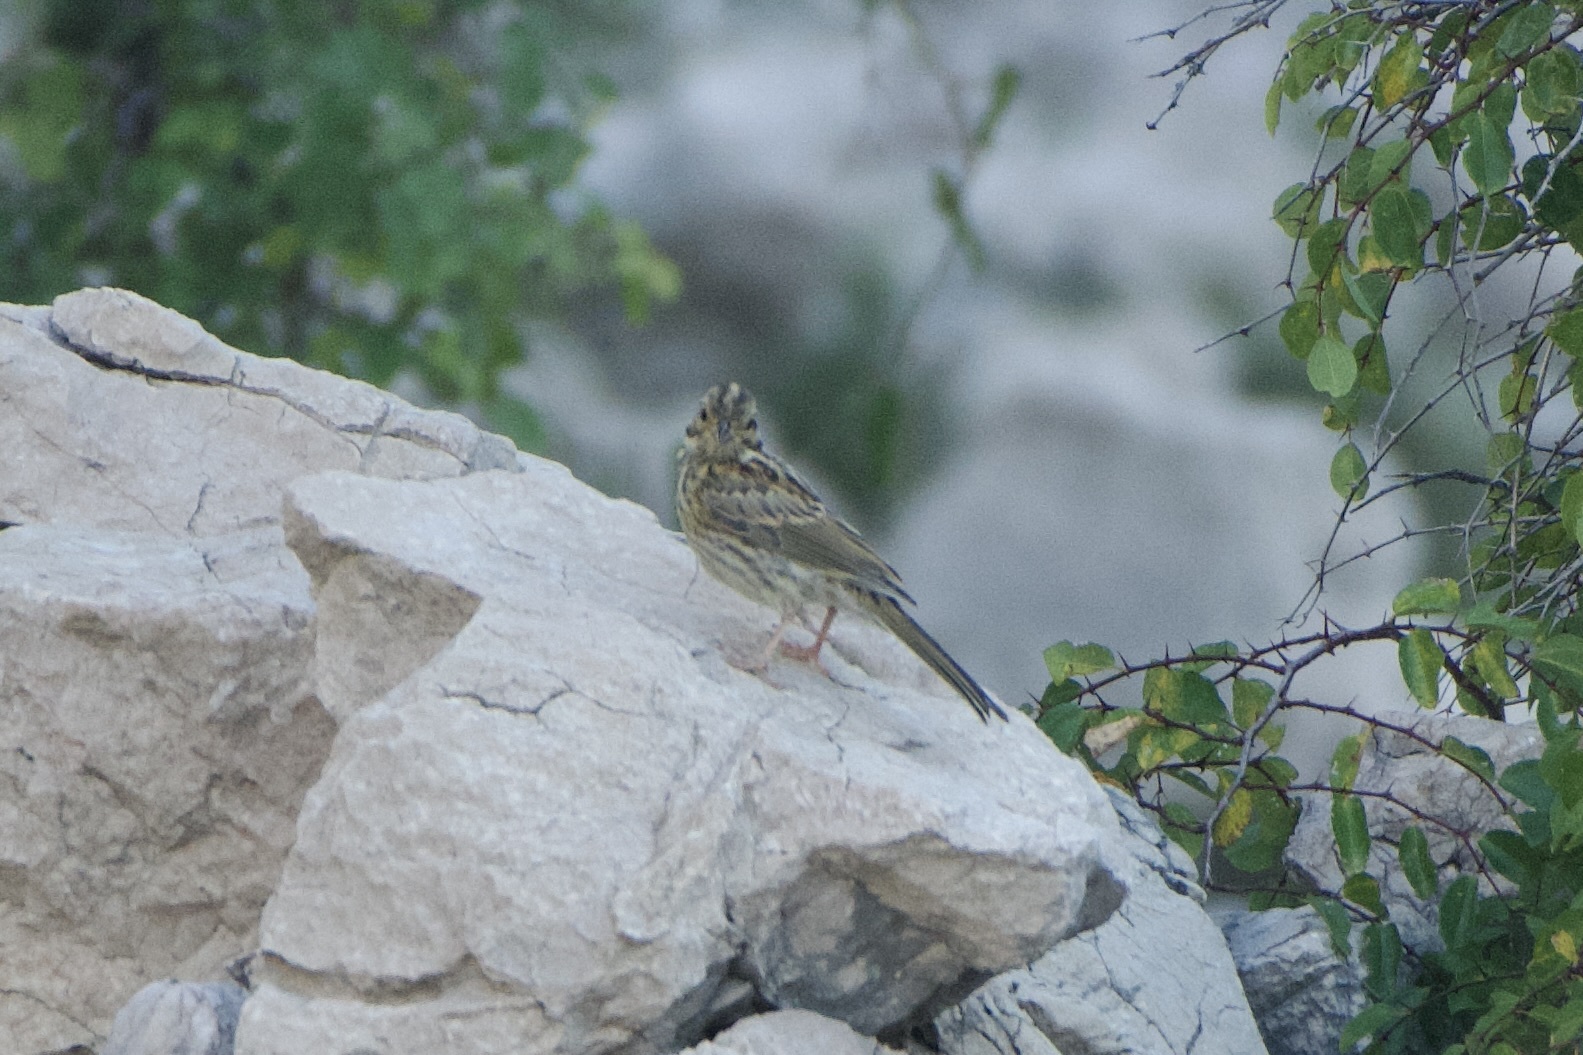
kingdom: Animalia
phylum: Chordata
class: Aves
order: Passeriformes
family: Emberizidae
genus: Emberiza
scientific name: Emberiza cirlus
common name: Cirl bunting
